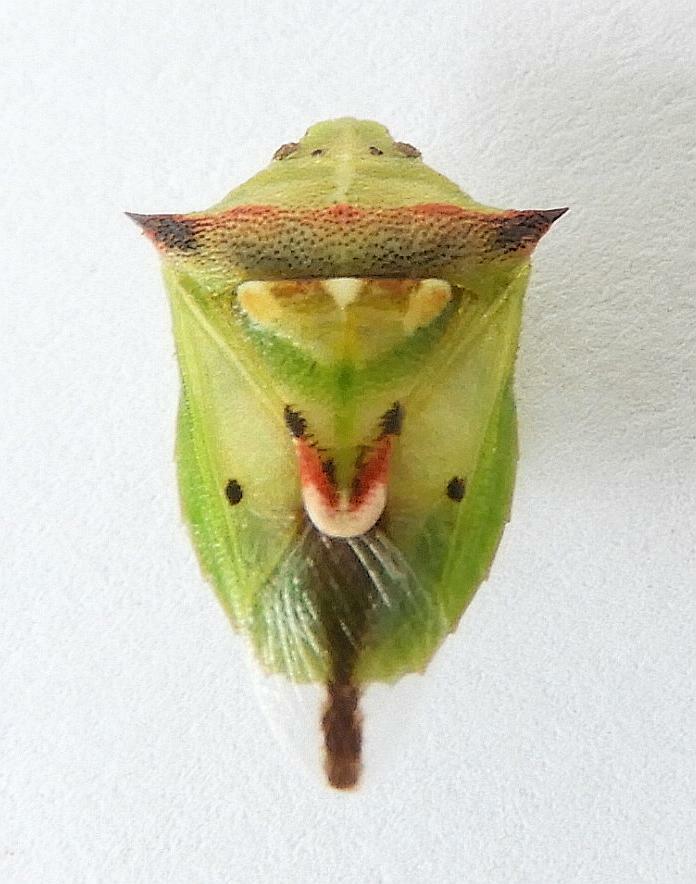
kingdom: Animalia
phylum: Arthropoda
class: Insecta
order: Hemiptera
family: Pentatomidae
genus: Tylospilus
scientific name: Tylospilus acutissimus
